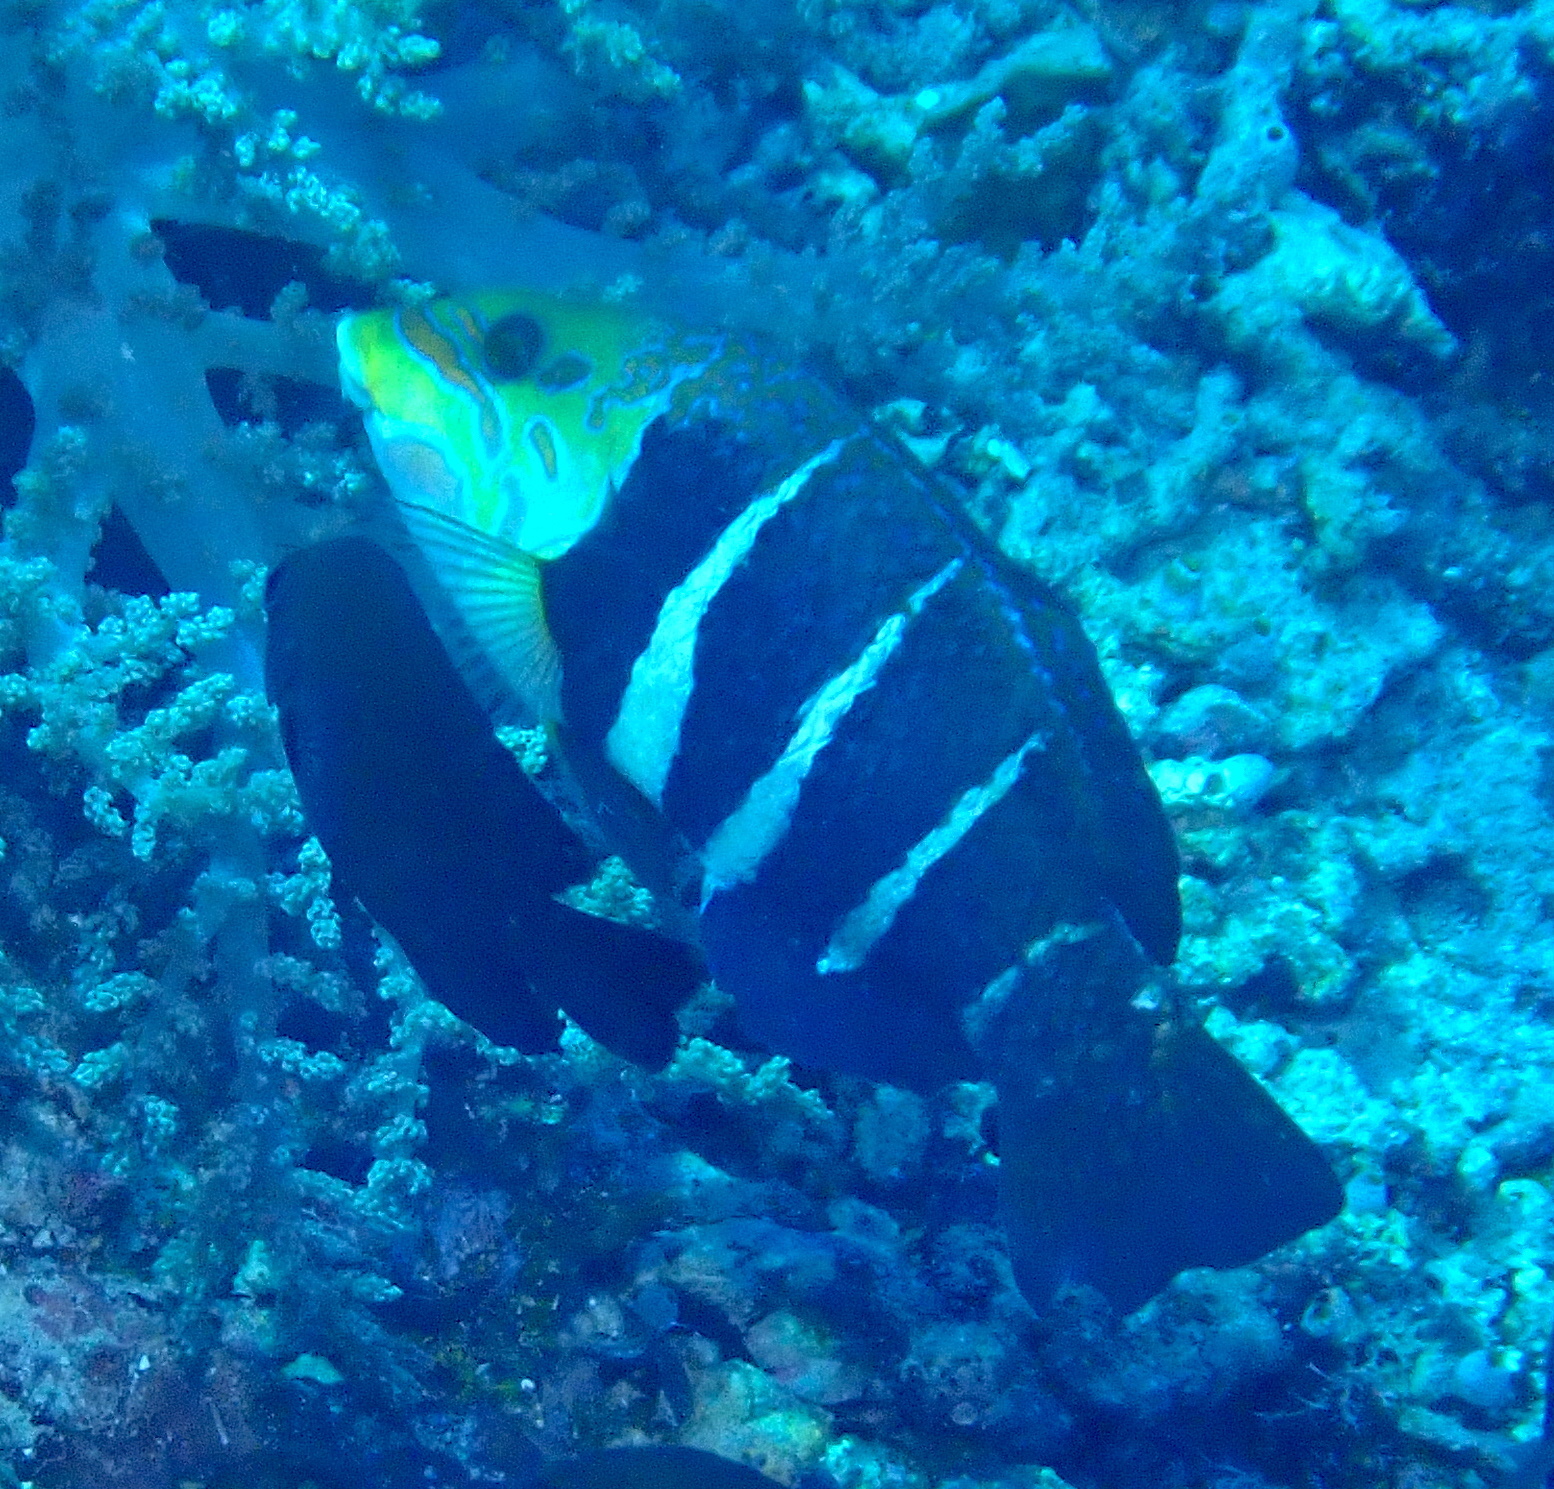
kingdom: Animalia
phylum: Chordata
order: Perciformes
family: Labridae
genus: Hemigymnus
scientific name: Hemigymnus fasciatus
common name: Barred thicklip
